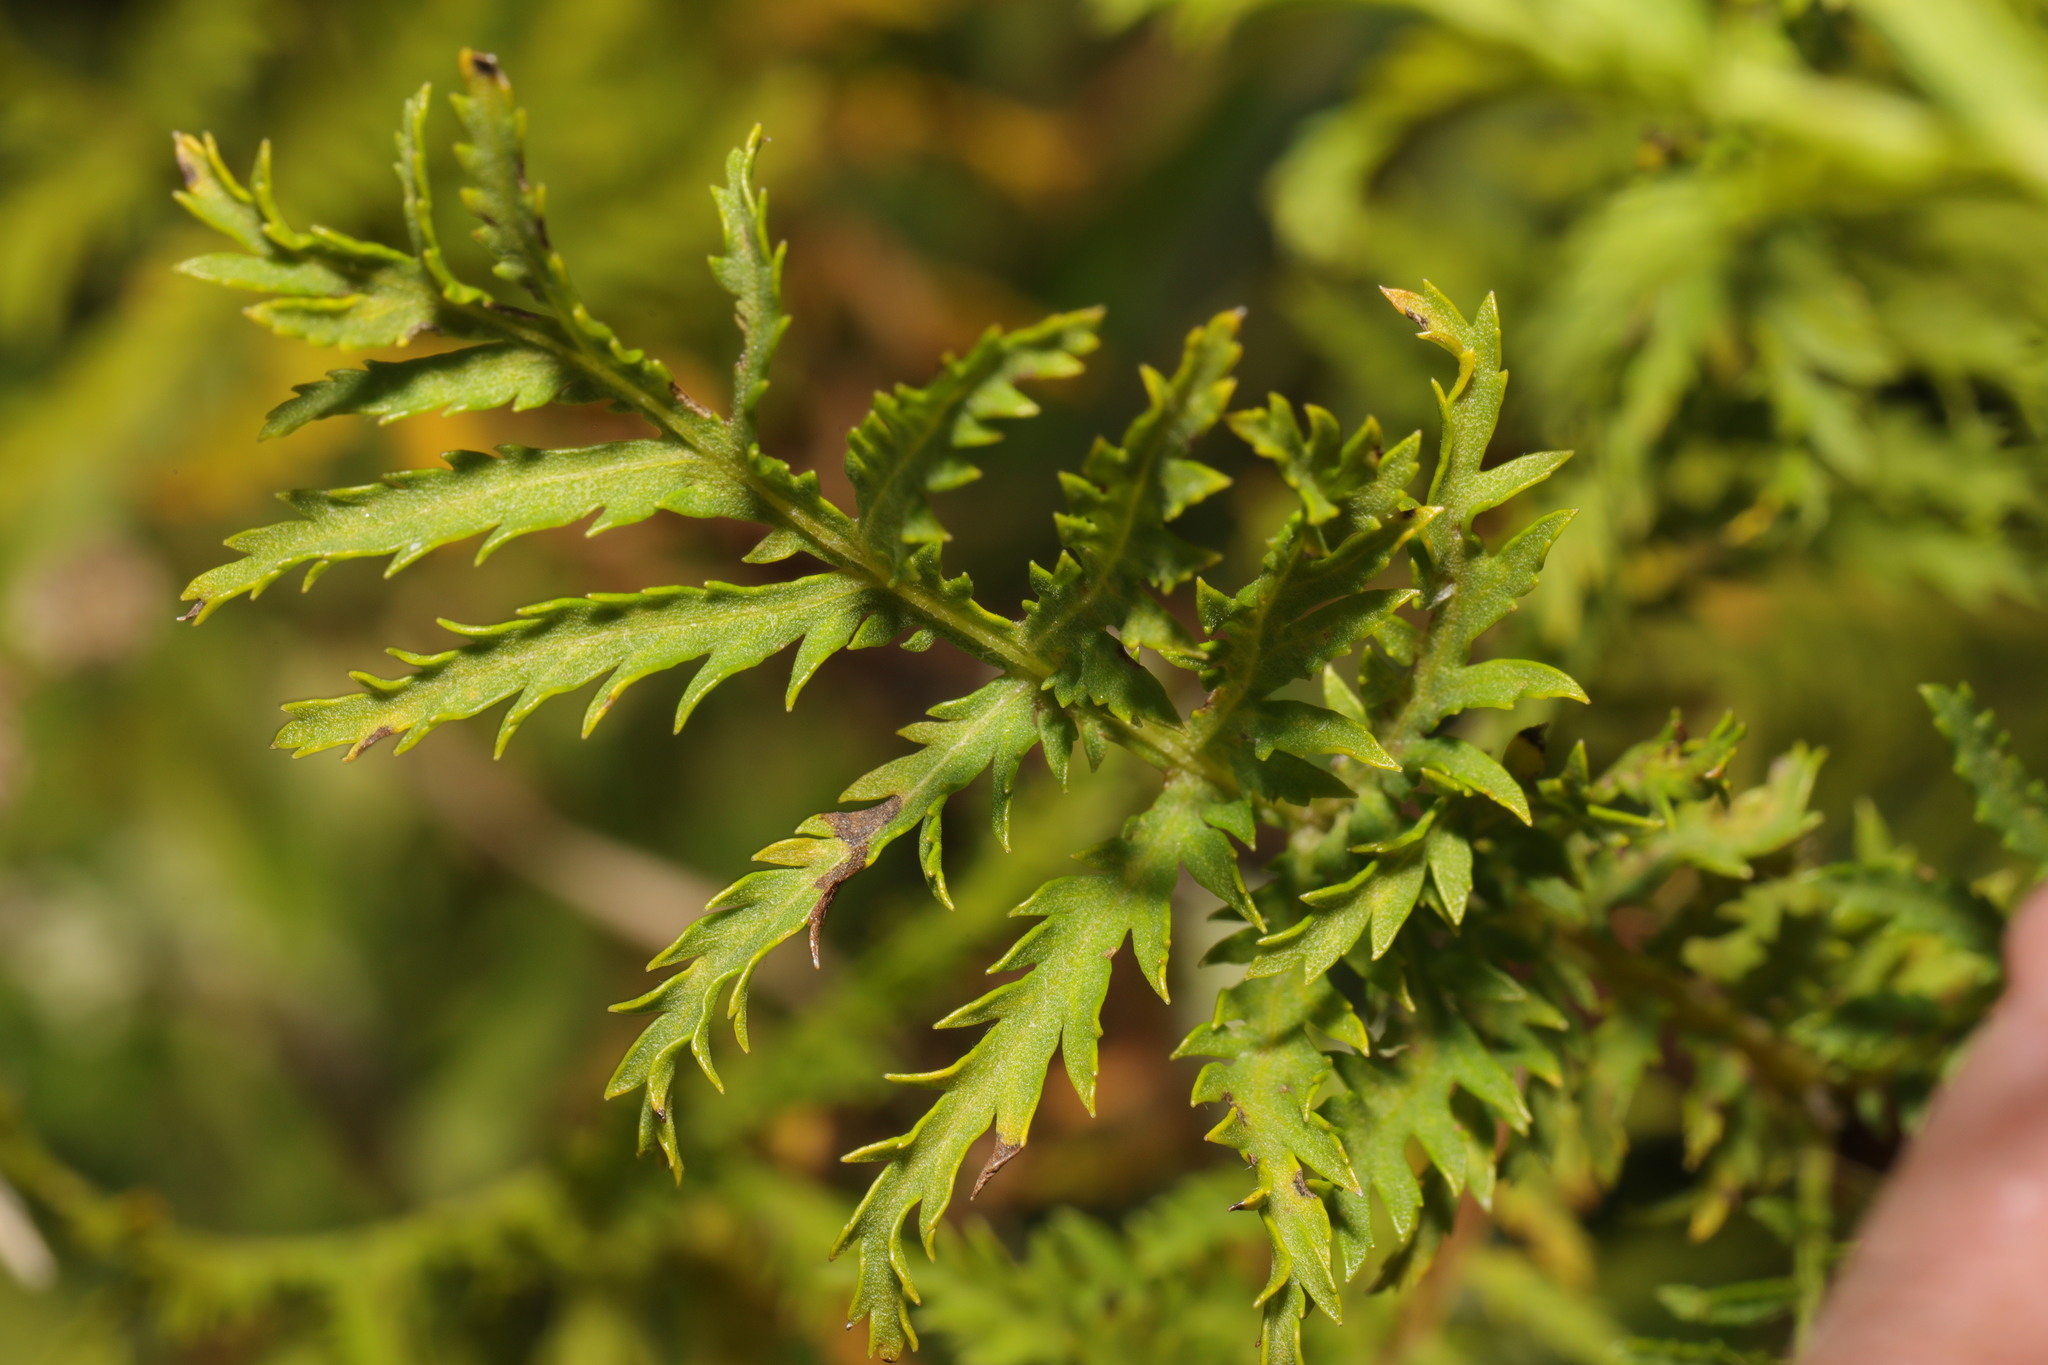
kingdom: Plantae
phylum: Tracheophyta
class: Magnoliopsida
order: Asterales
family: Asteraceae
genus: Tanacetum
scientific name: Tanacetum vulgare
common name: Common tansy
